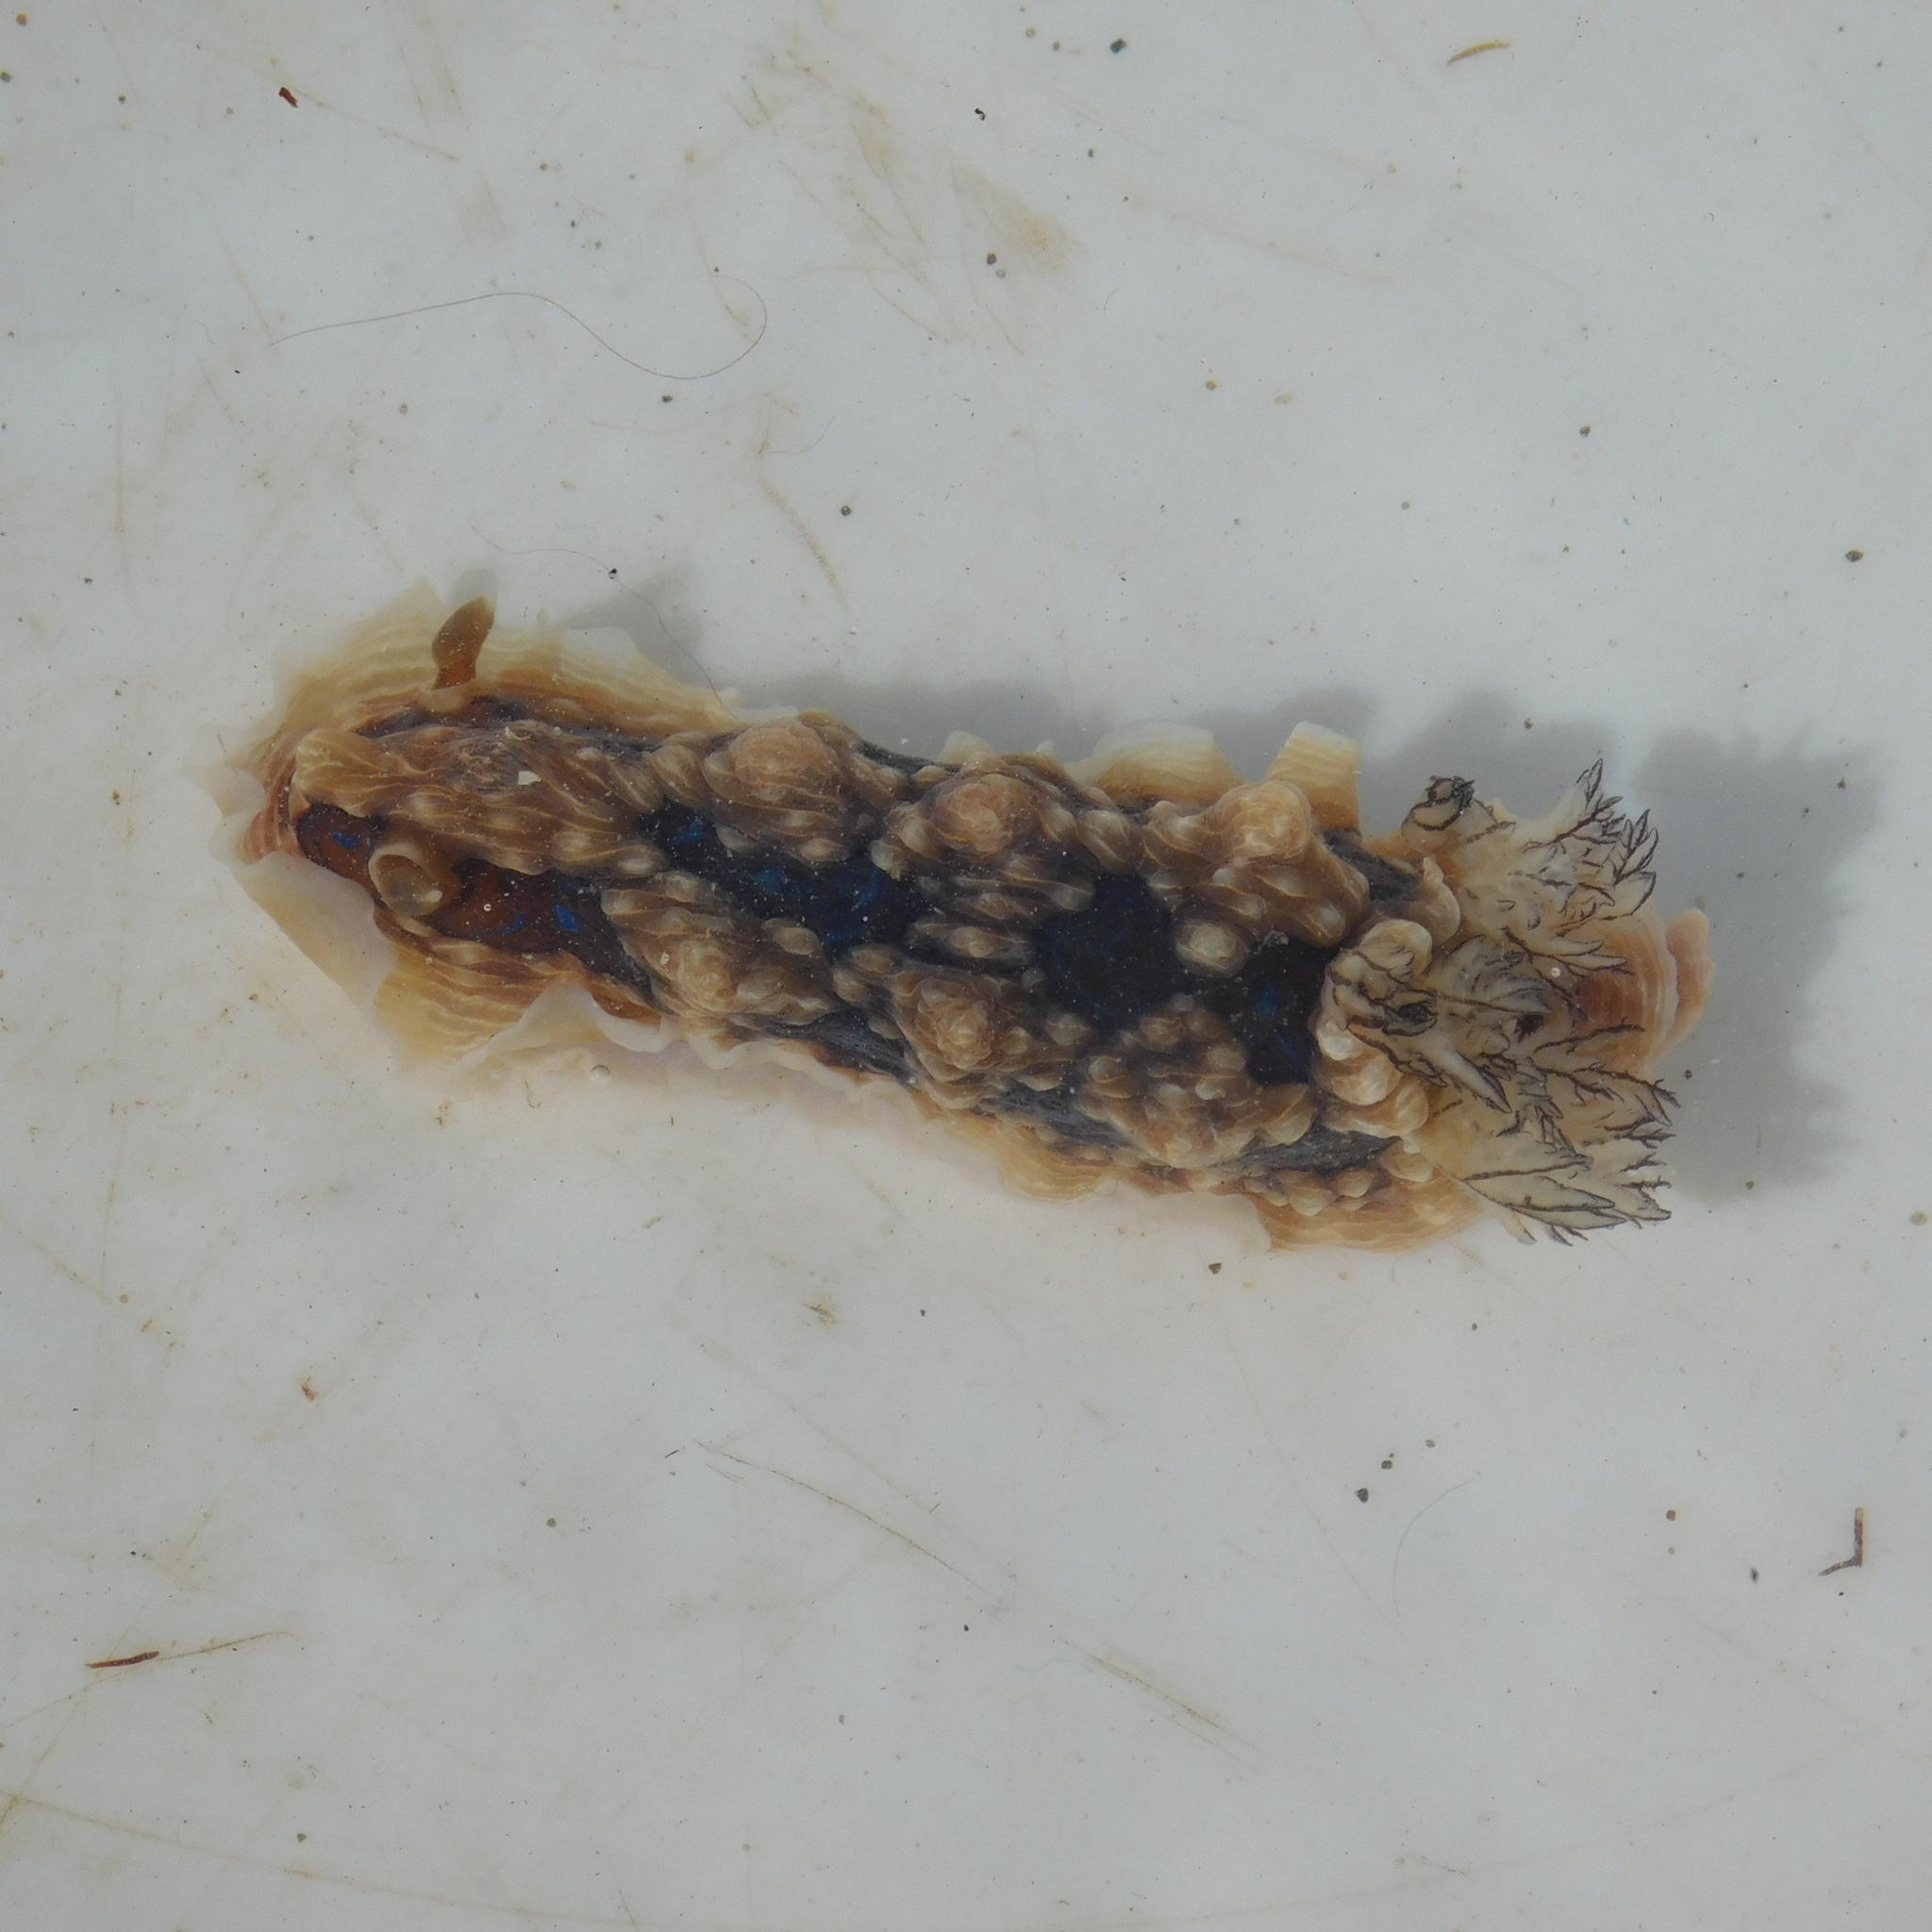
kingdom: Animalia
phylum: Mollusca
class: Gastropoda
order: Nudibranchia
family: Dendrodorididae
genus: Dendrodoris
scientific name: Dendrodoris krusensternii
